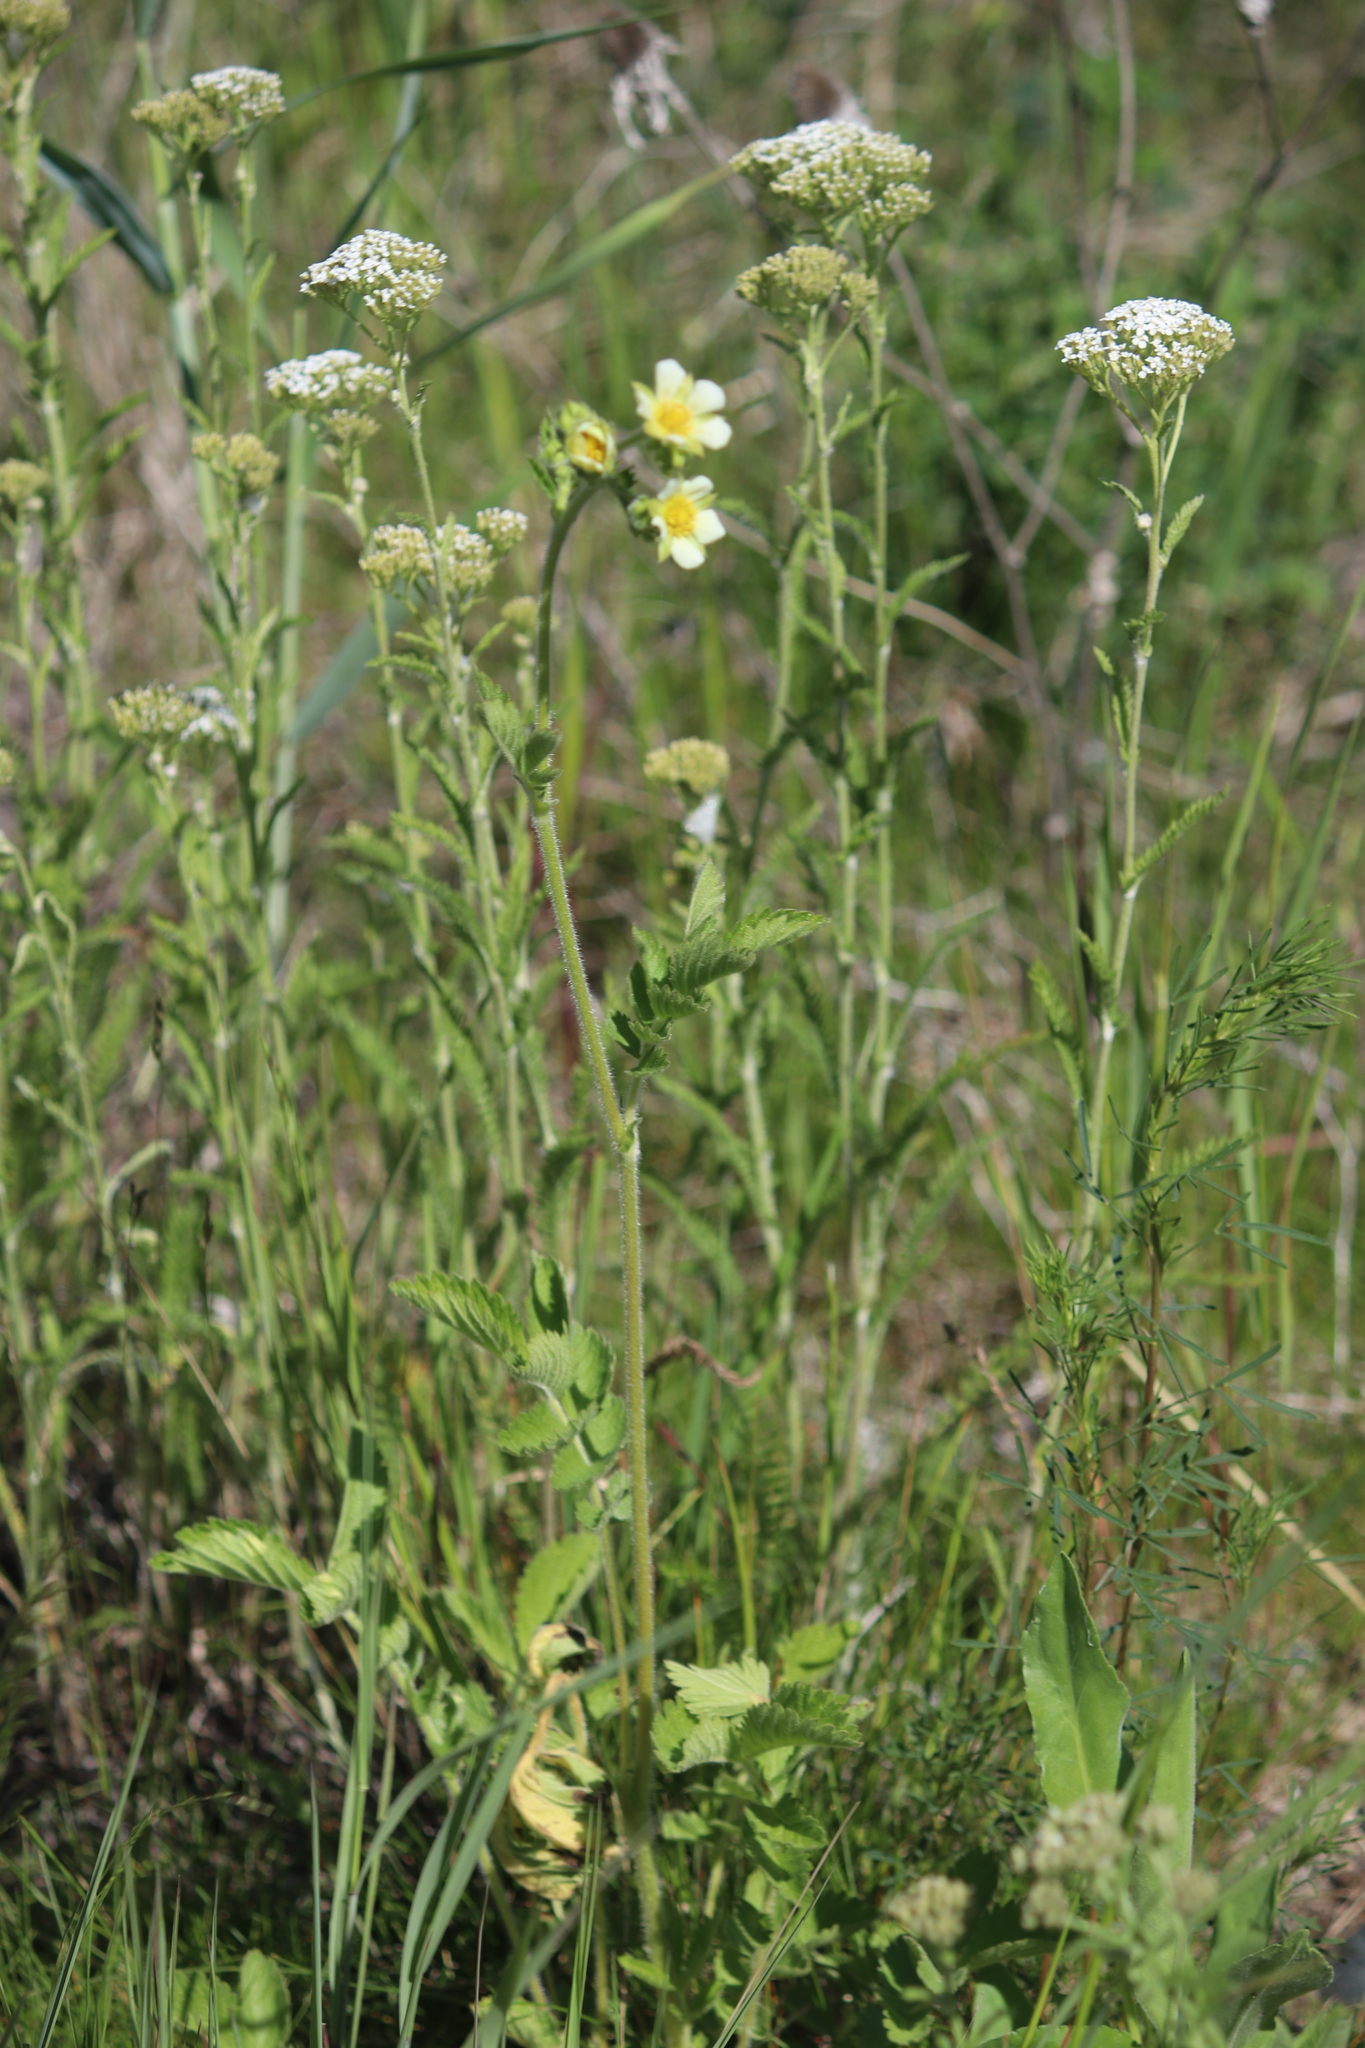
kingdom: Plantae
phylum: Tracheophyta
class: Magnoliopsida
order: Rosales
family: Rosaceae
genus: Drymocallis
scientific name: Drymocallis arguta
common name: Tall cinquefoil
